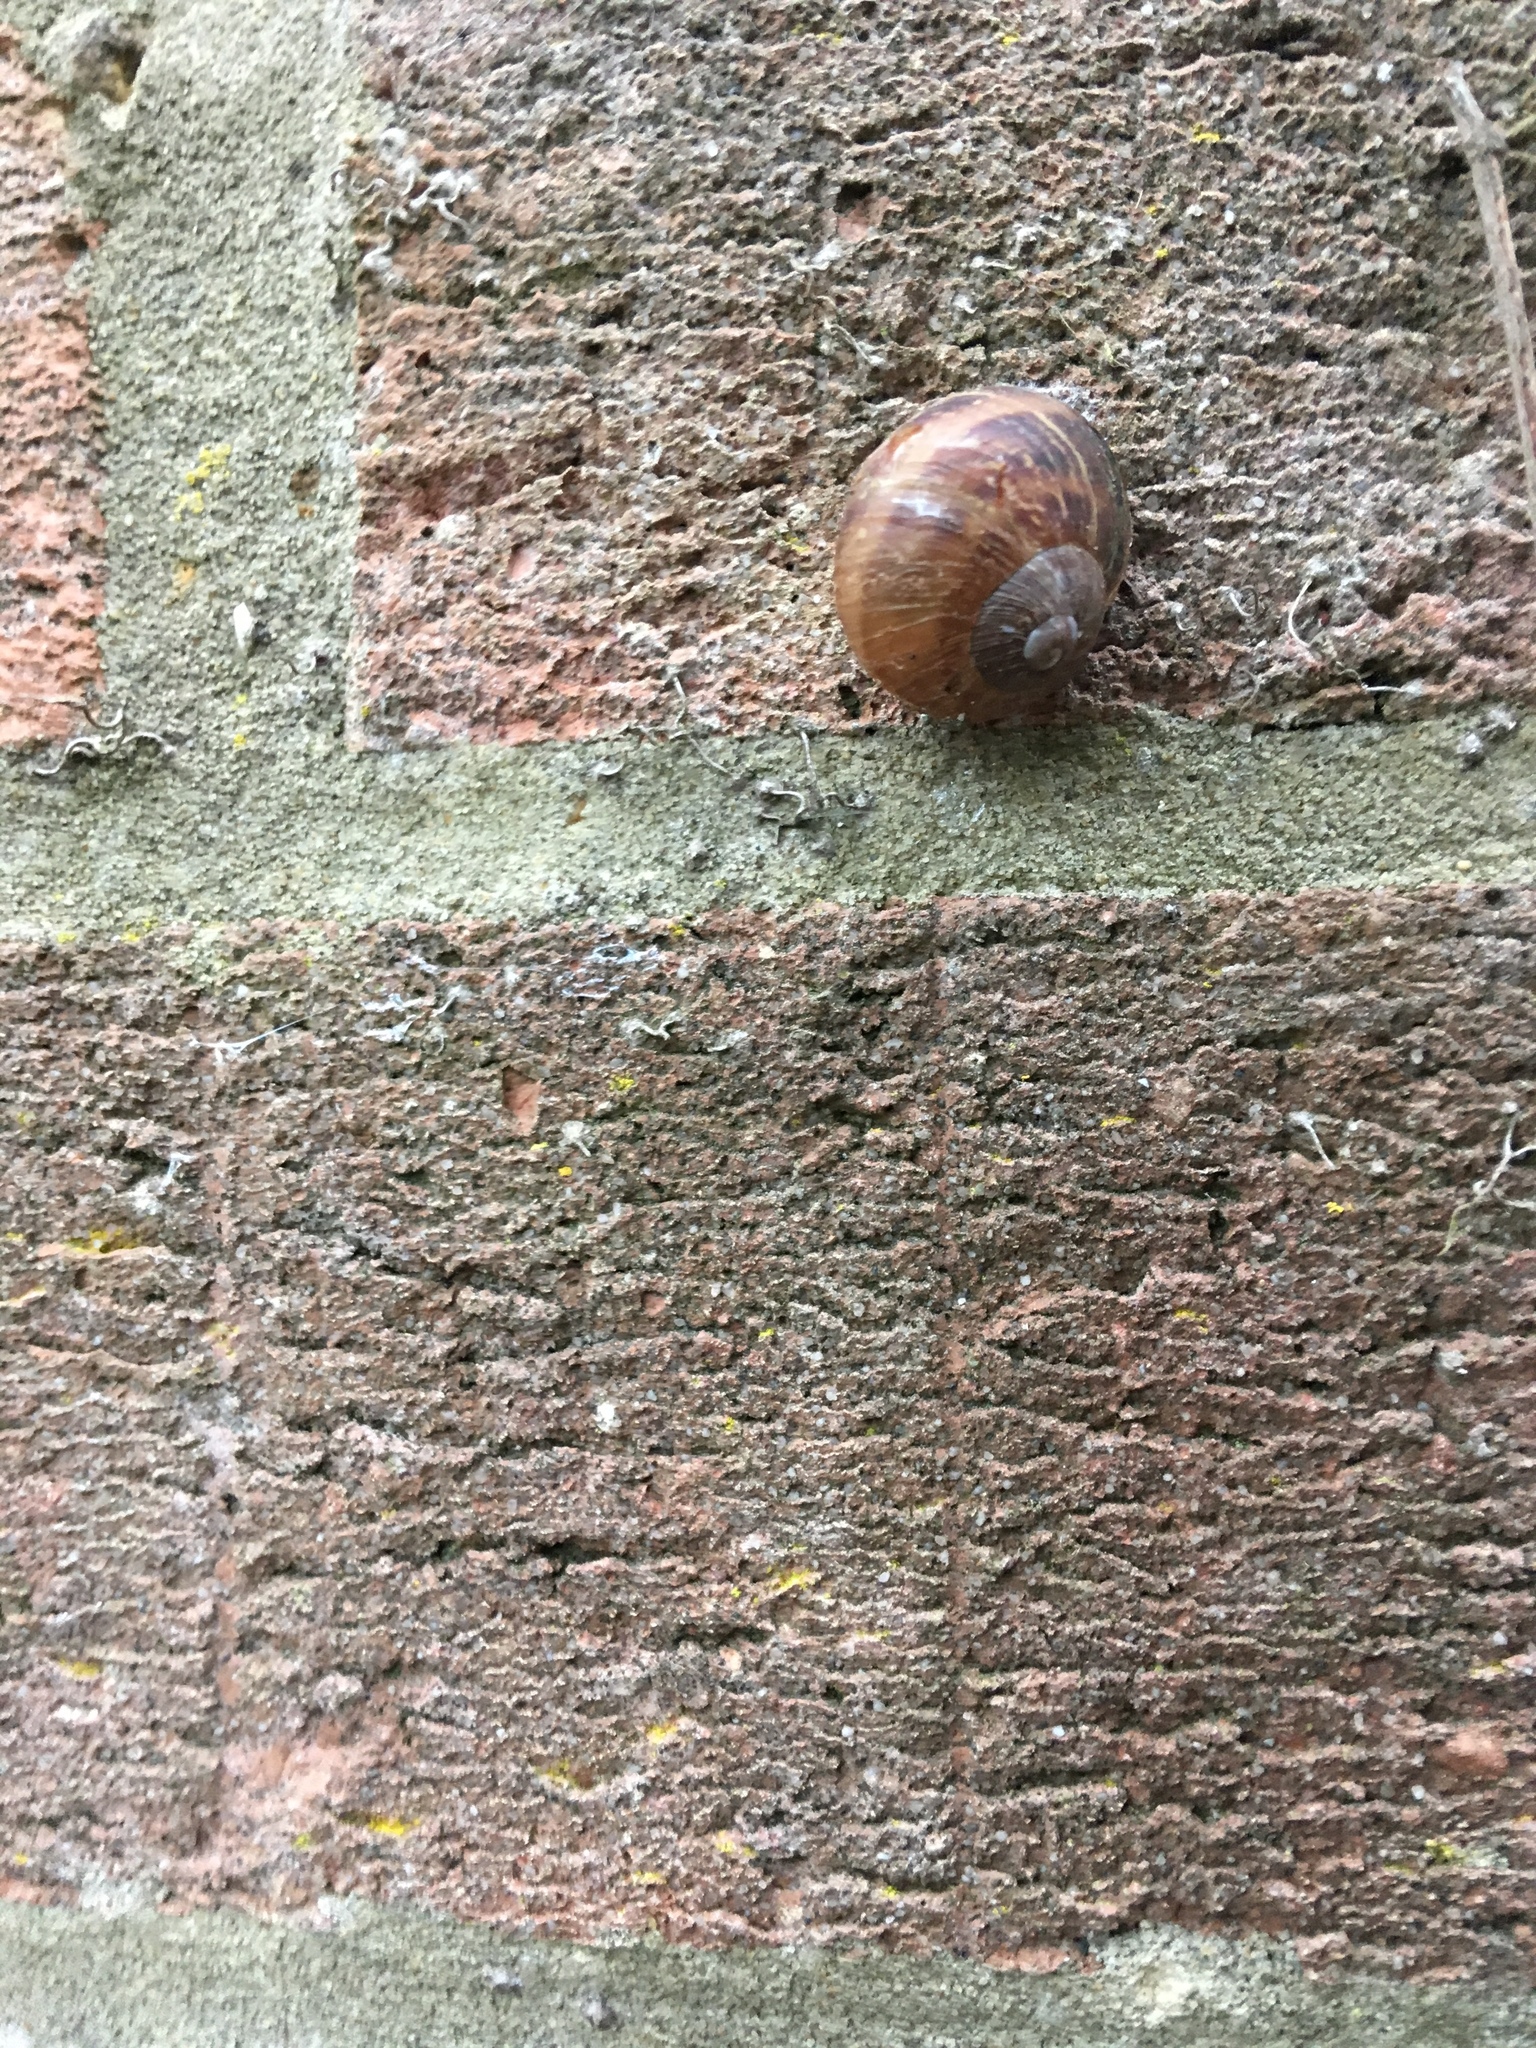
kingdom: Animalia
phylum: Mollusca
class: Gastropoda
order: Stylommatophora
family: Helicidae
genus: Cornu
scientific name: Cornu aspersum
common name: Brown garden snail
